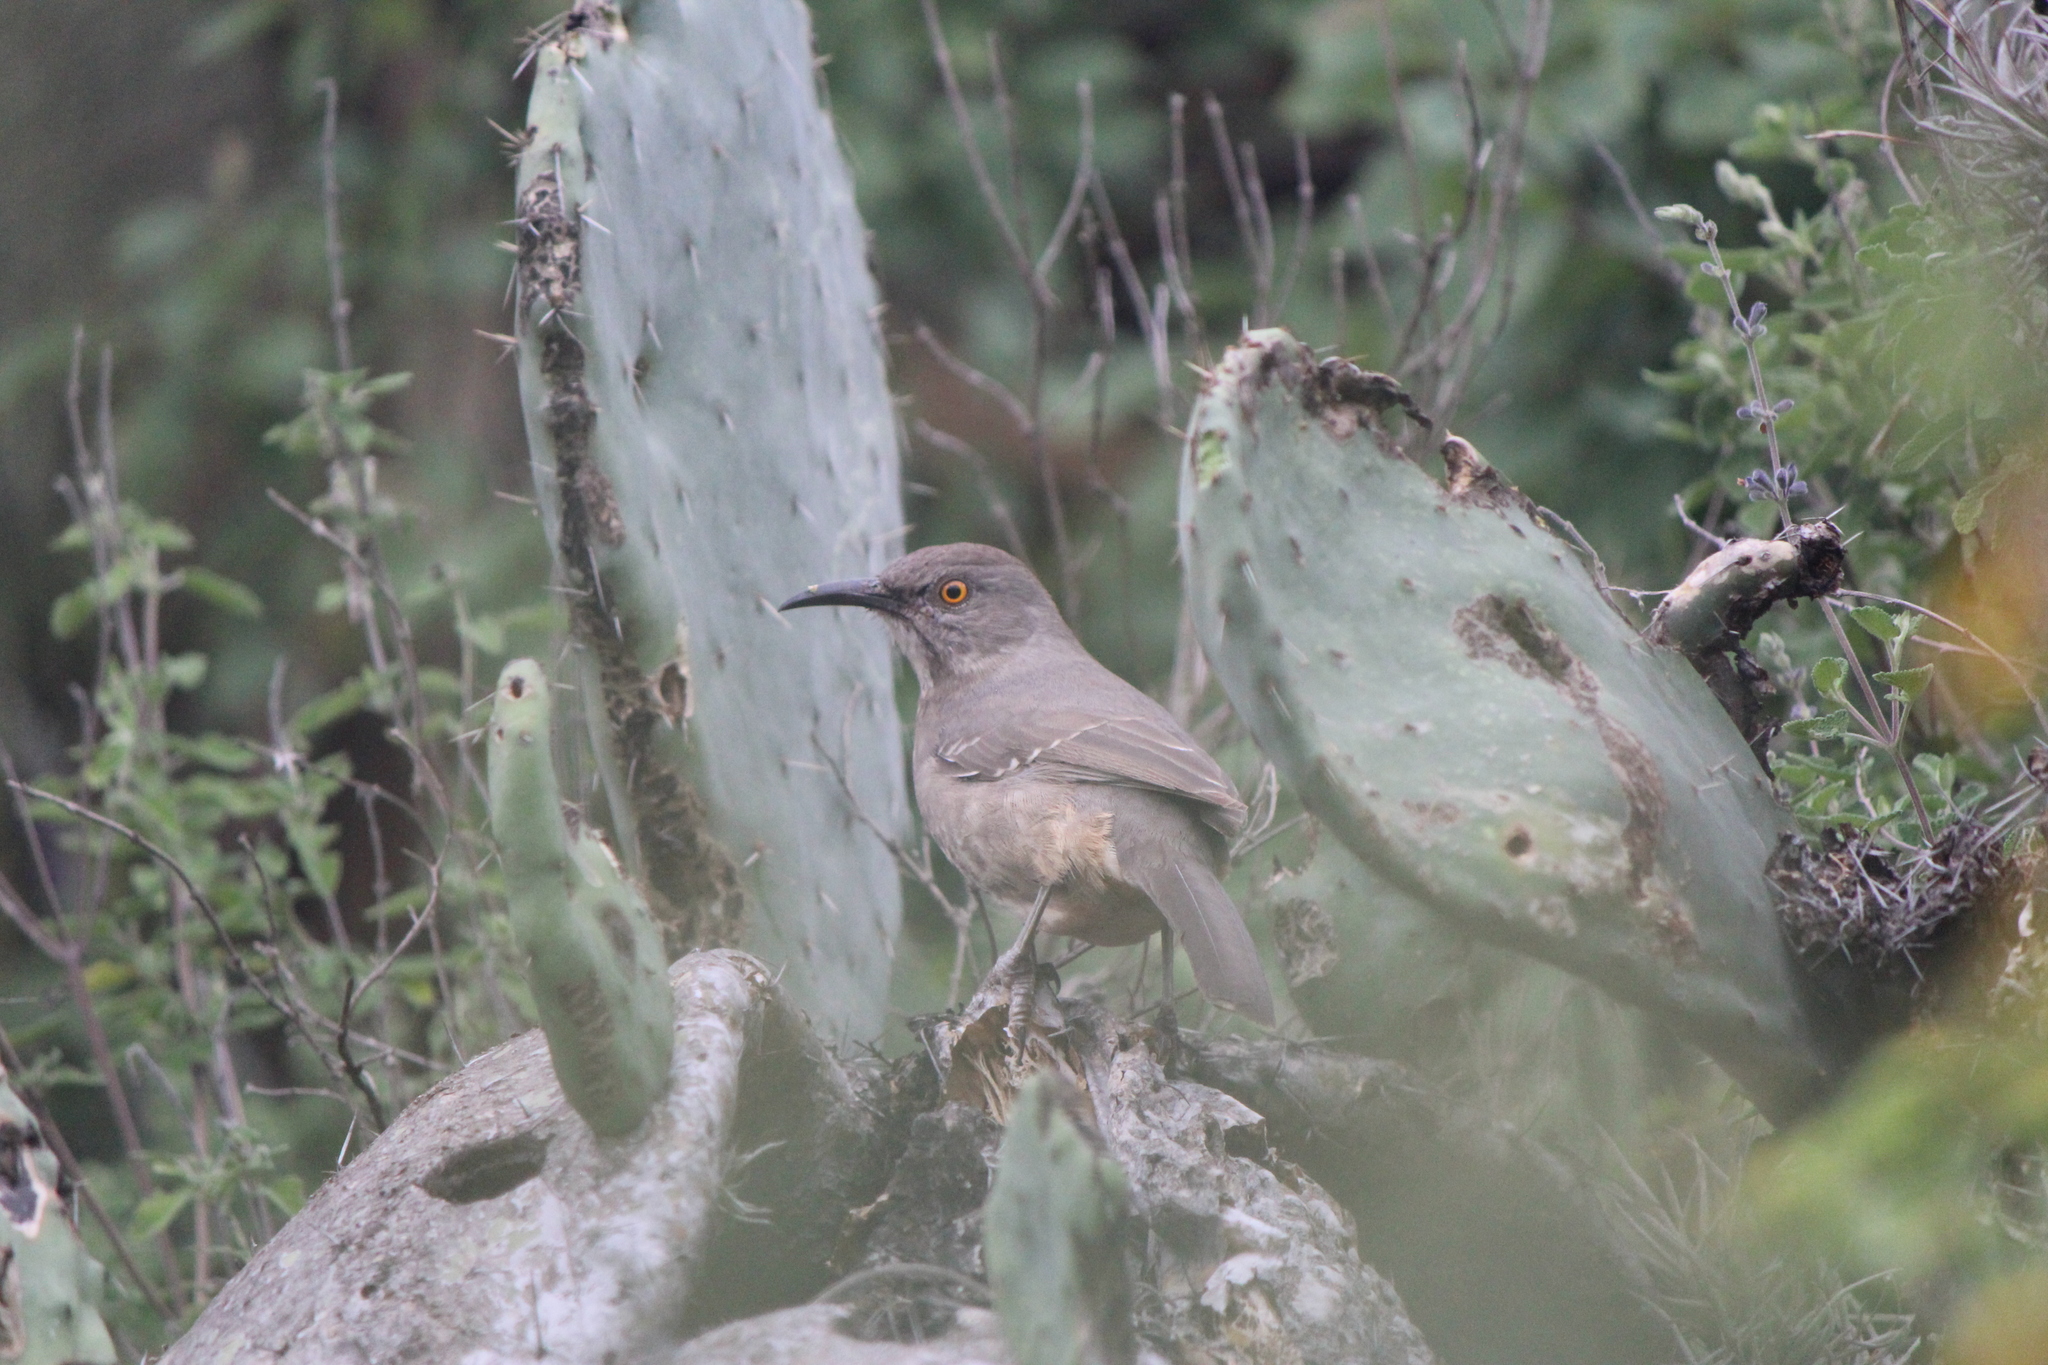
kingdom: Animalia
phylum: Chordata
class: Aves
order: Passeriformes
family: Mimidae
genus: Toxostoma
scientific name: Toxostoma curvirostre
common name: Curve-billed thrasher
